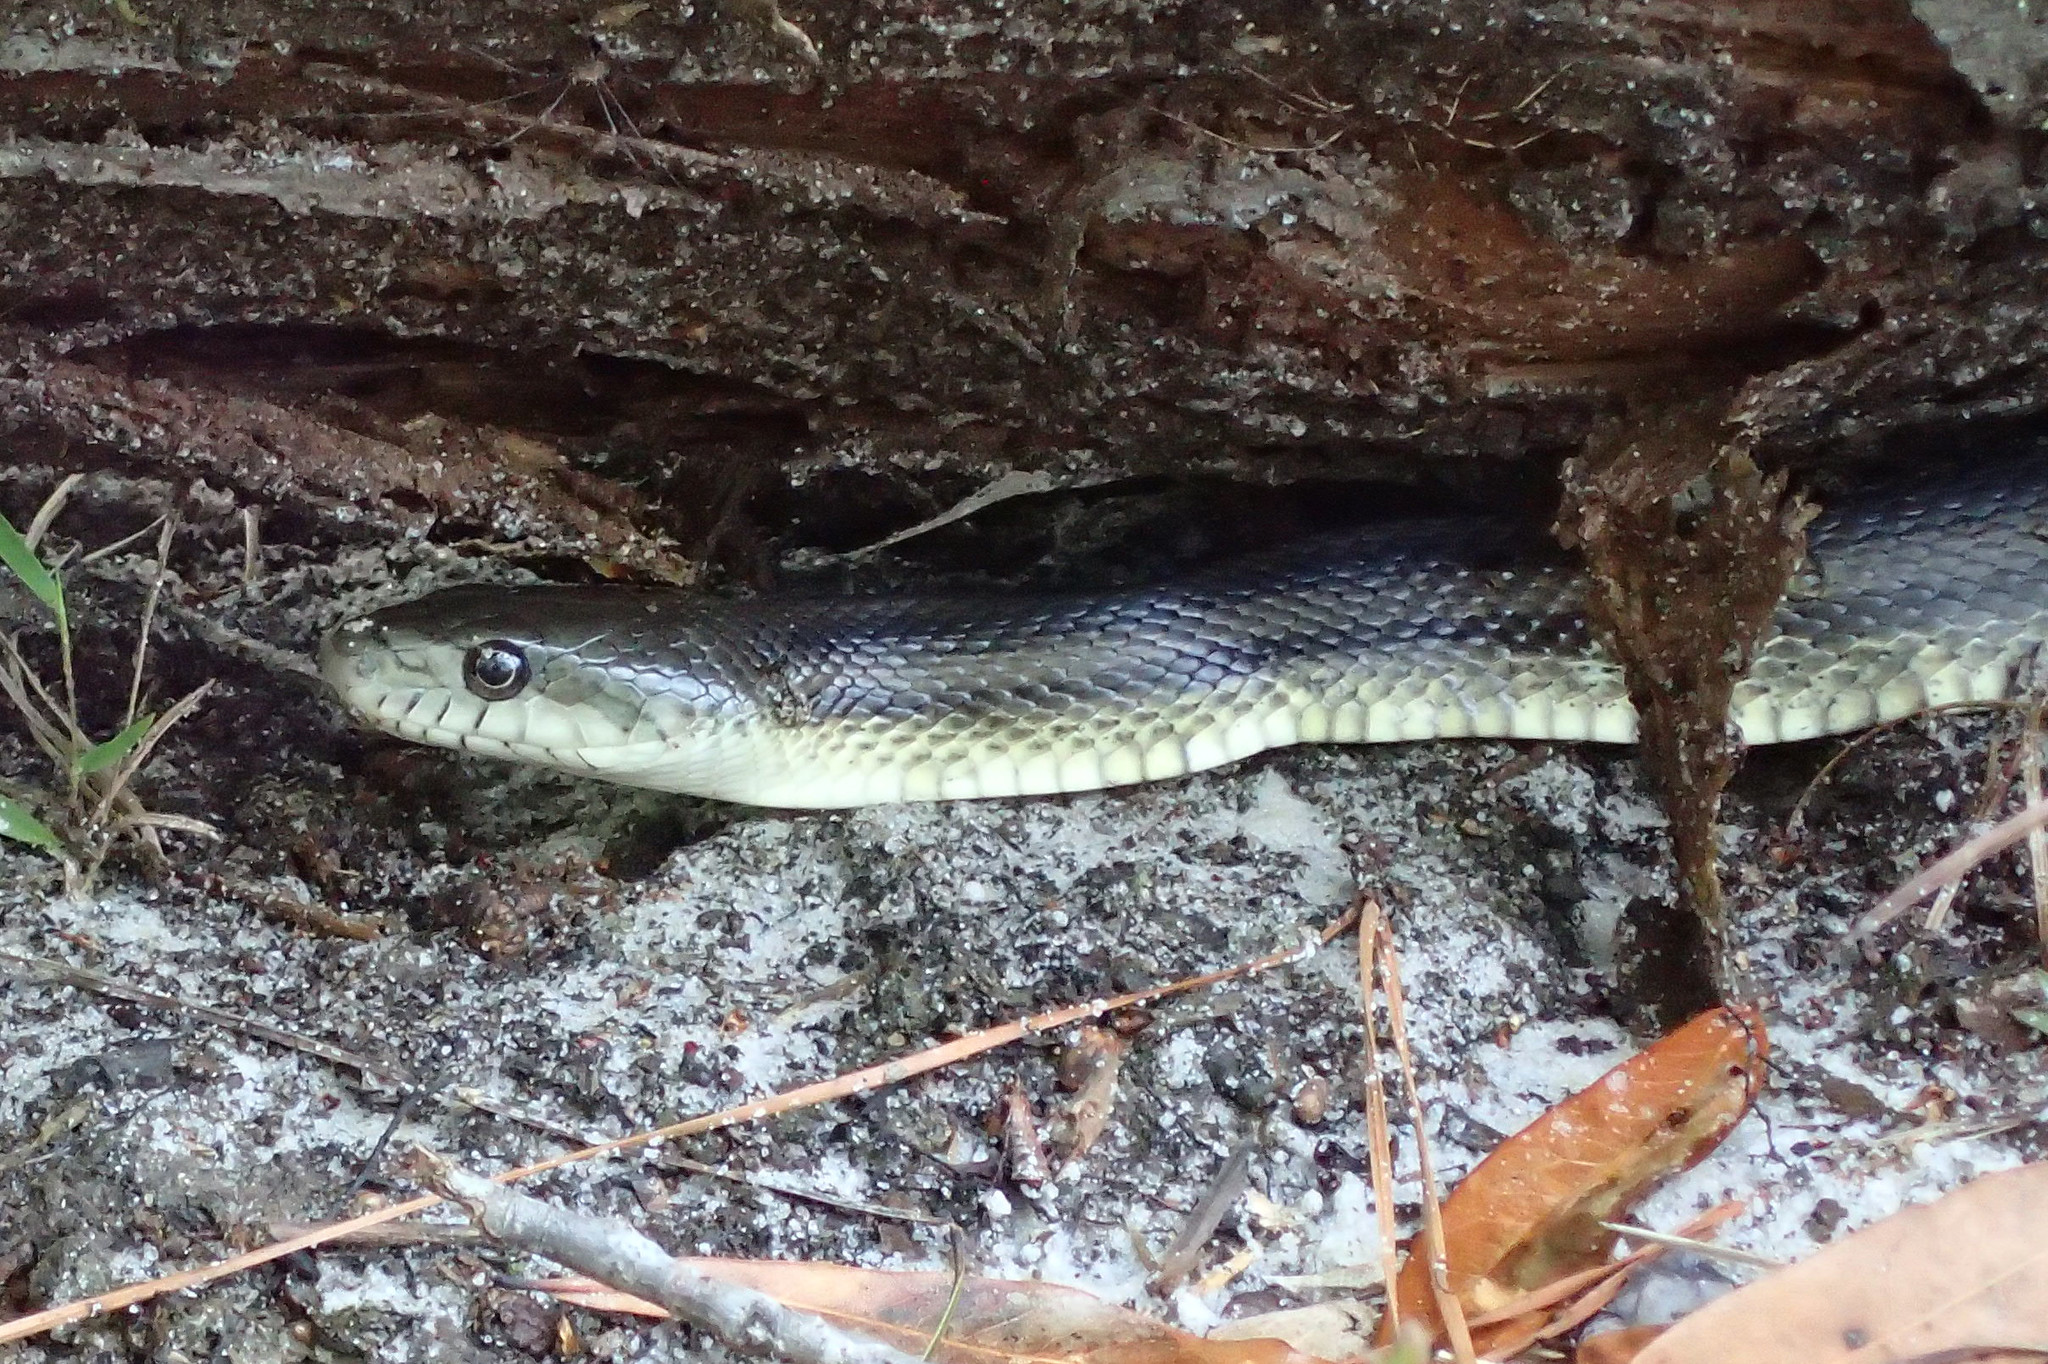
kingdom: Animalia
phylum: Chordata
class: Squamata
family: Colubridae
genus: Pantherophis
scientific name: Pantherophis alleghaniensis
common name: Eastern rat snake
